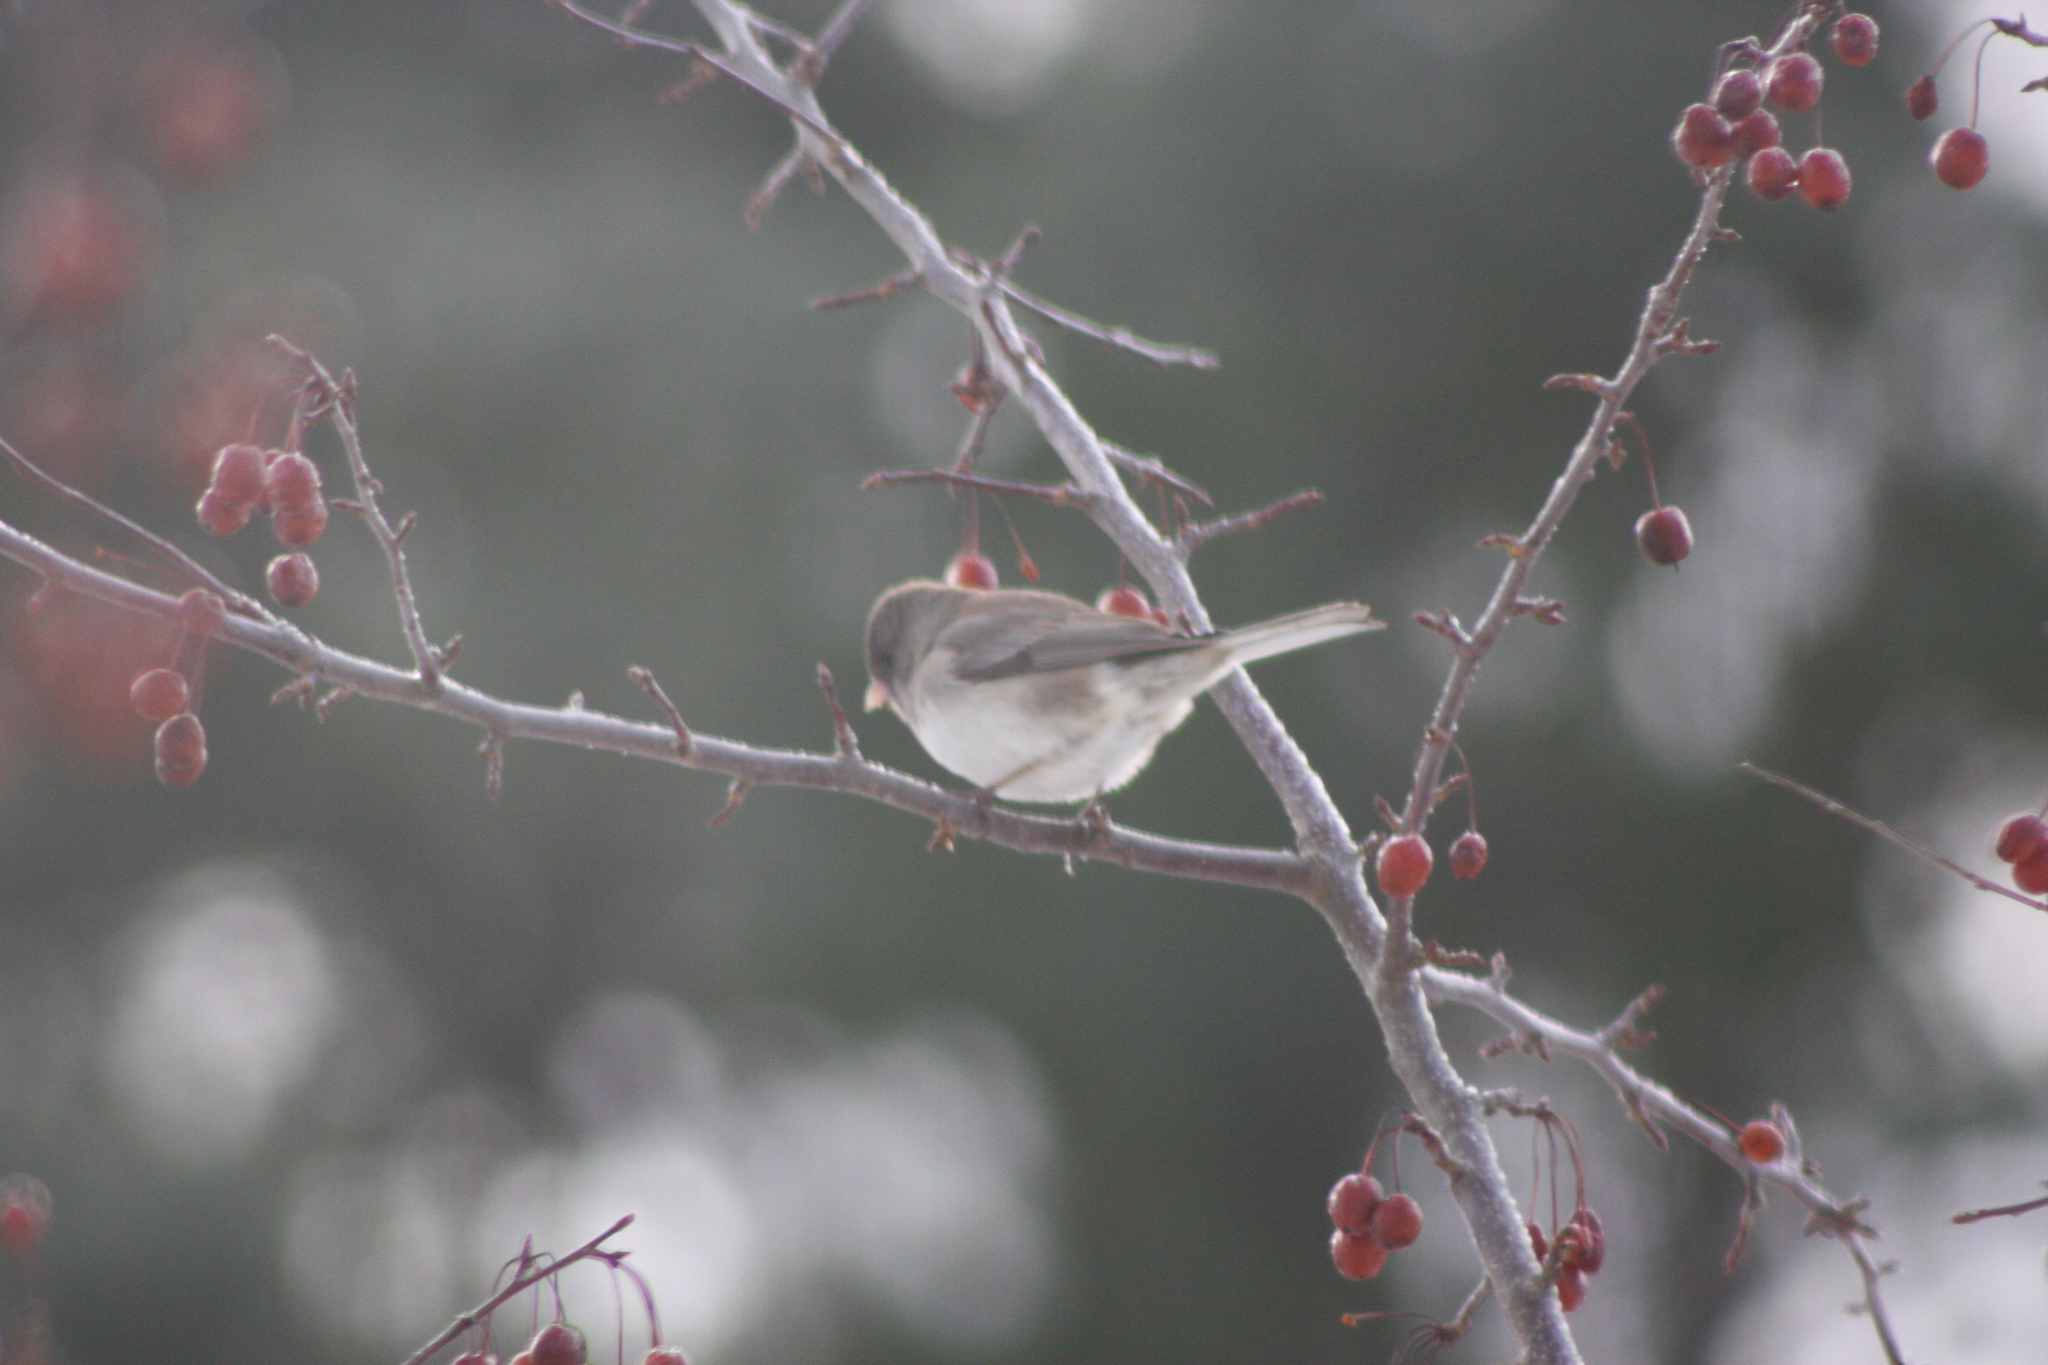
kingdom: Animalia
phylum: Chordata
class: Aves
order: Passeriformes
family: Passerellidae
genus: Junco
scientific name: Junco hyemalis
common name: Dark-eyed junco
